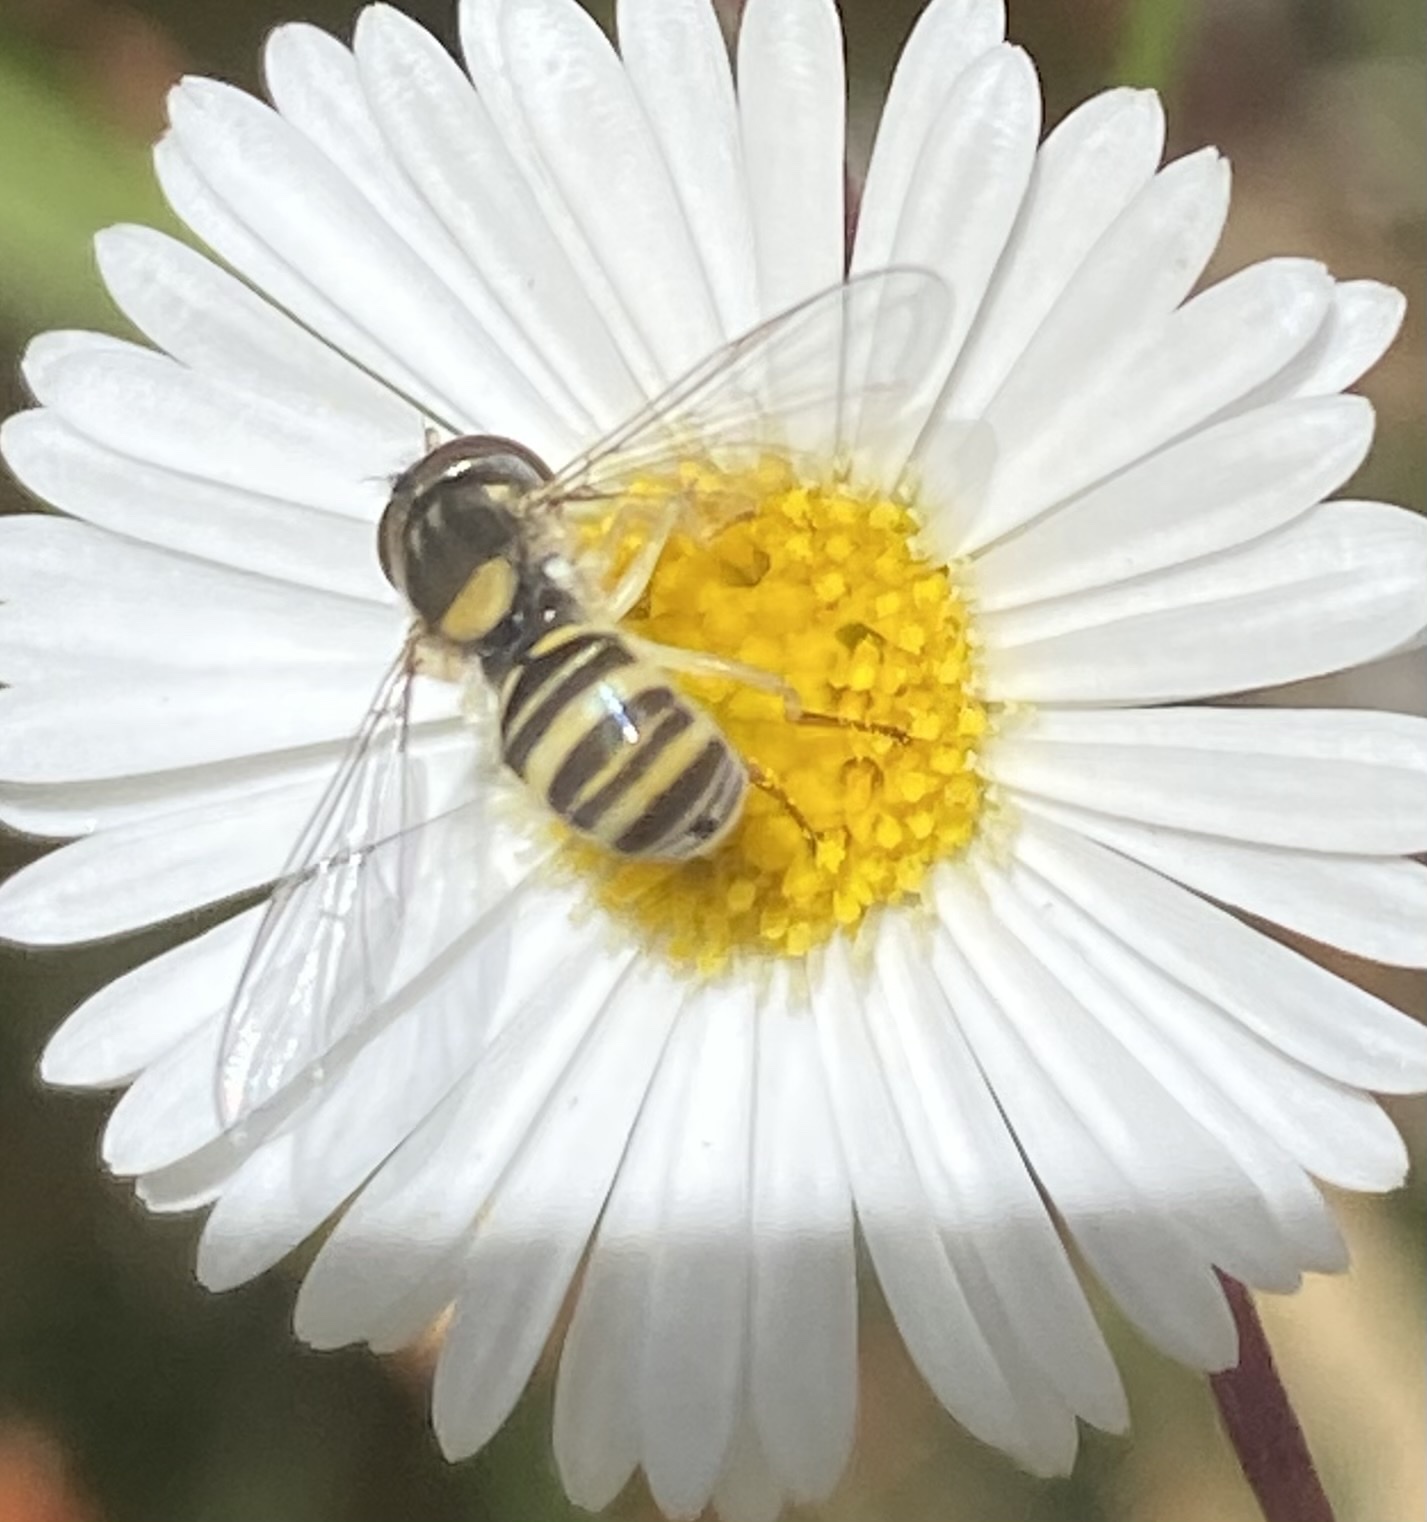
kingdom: Animalia
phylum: Arthropoda
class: Insecta
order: Diptera
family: Syrphidae
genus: Sphaerophoria
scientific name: Sphaerophoria sulphuripes
